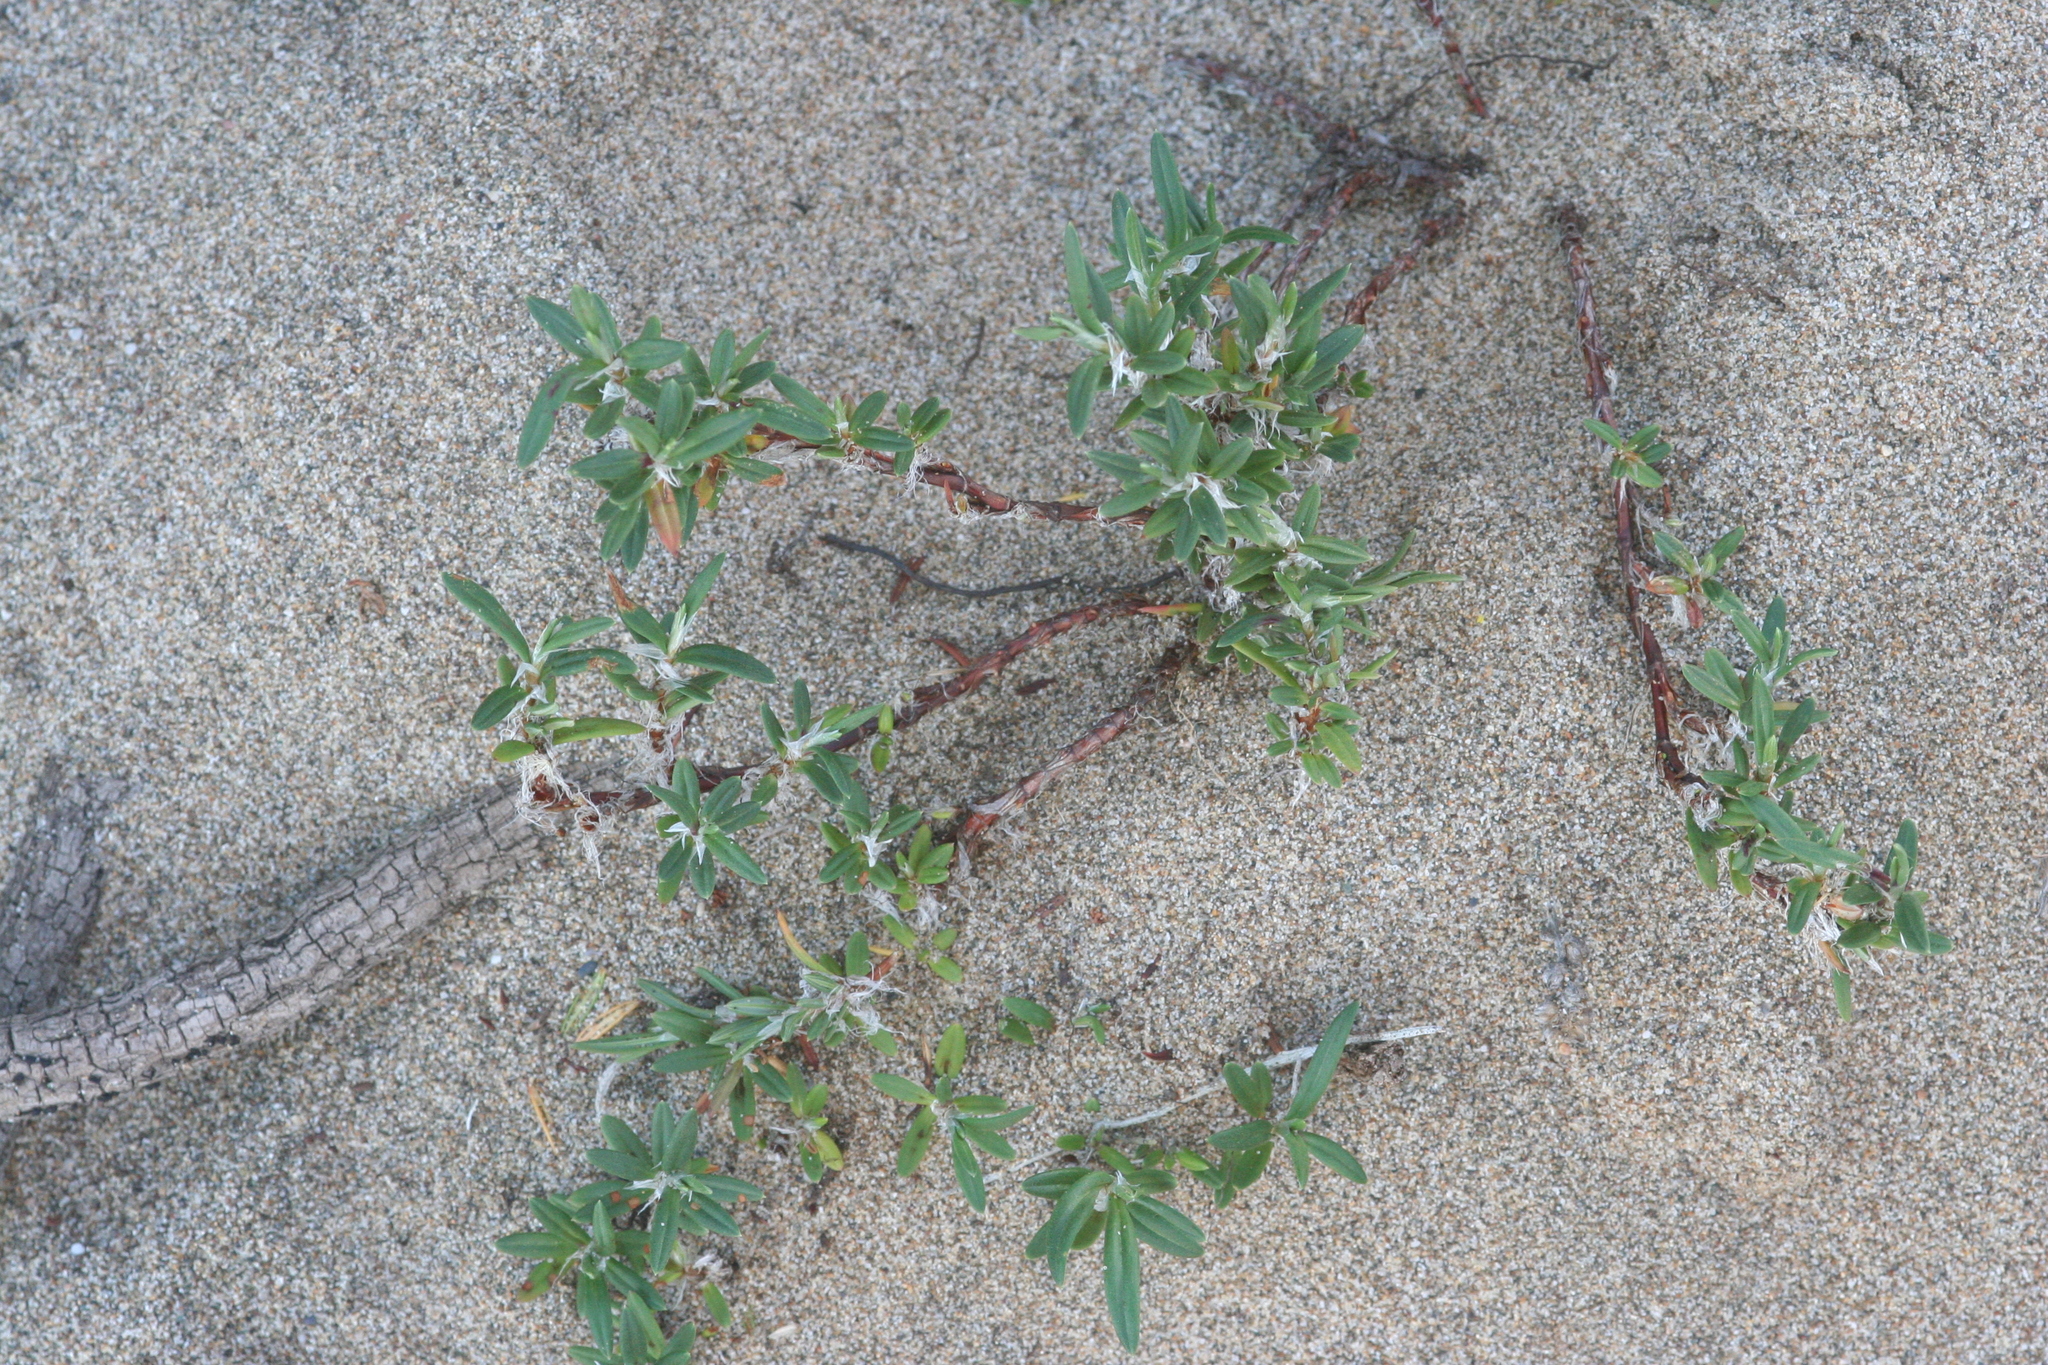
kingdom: Plantae
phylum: Tracheophyta
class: Magnoliopsida
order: Caryophyllales
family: Polygonaceae
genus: Polygonum
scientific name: Polygonum paronychia
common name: Dune knotweed
